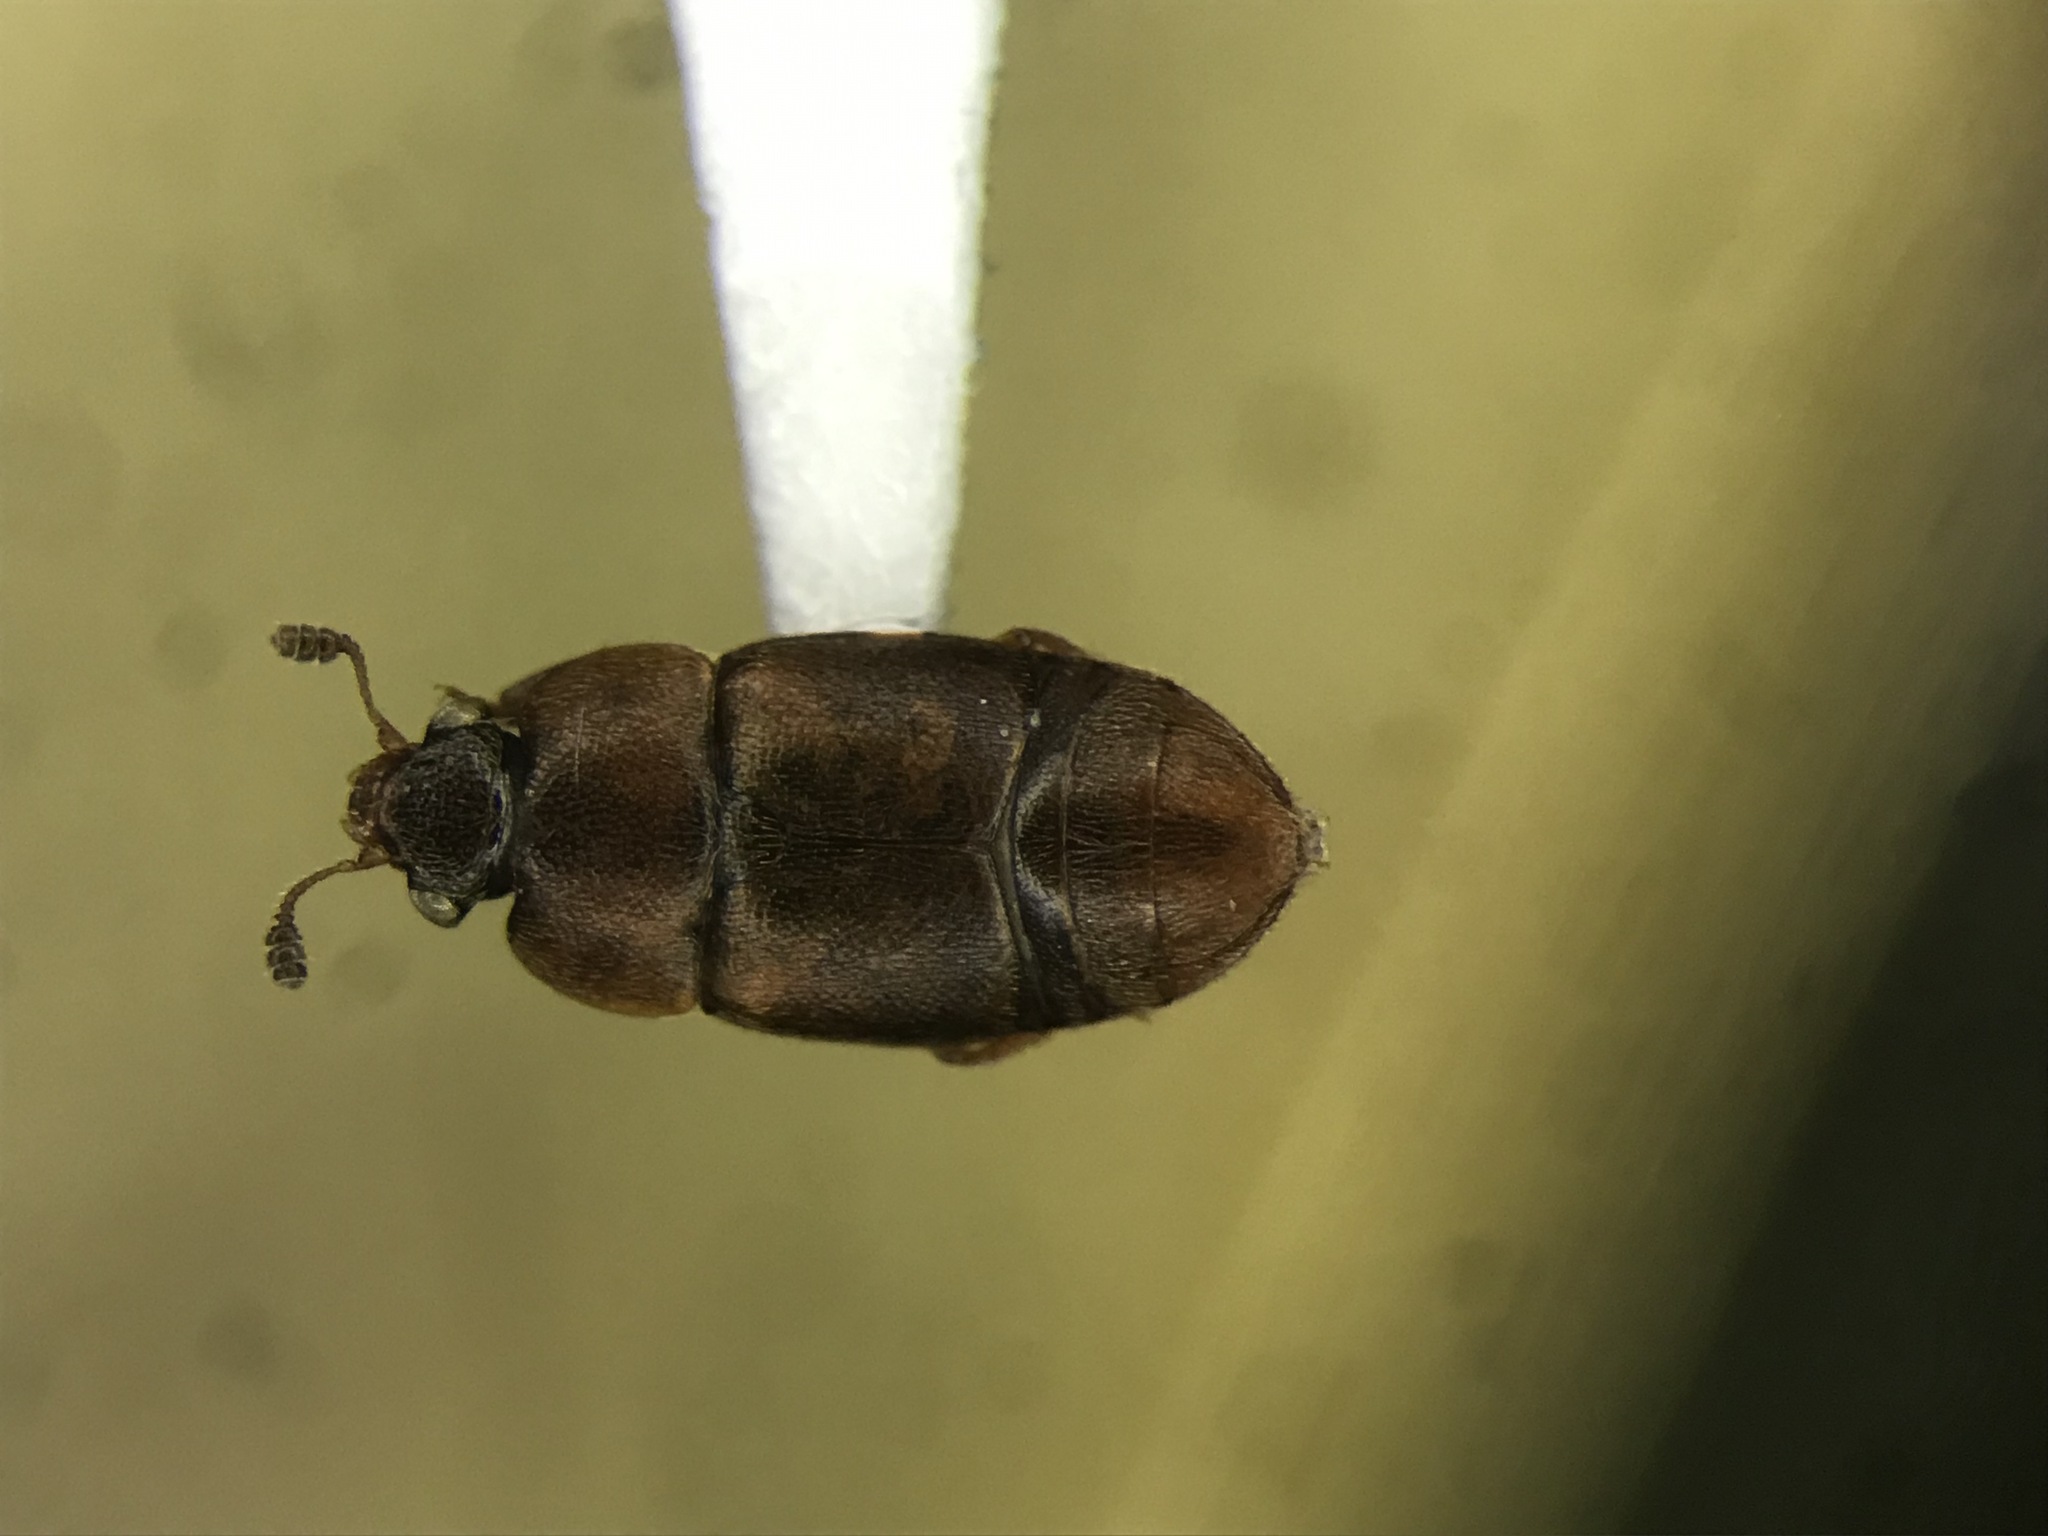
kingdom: Animalia
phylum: Arthropoda
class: Insecta
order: Coleoptera
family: Nitidulidae
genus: Colopterus
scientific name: Colopterus truncatus
